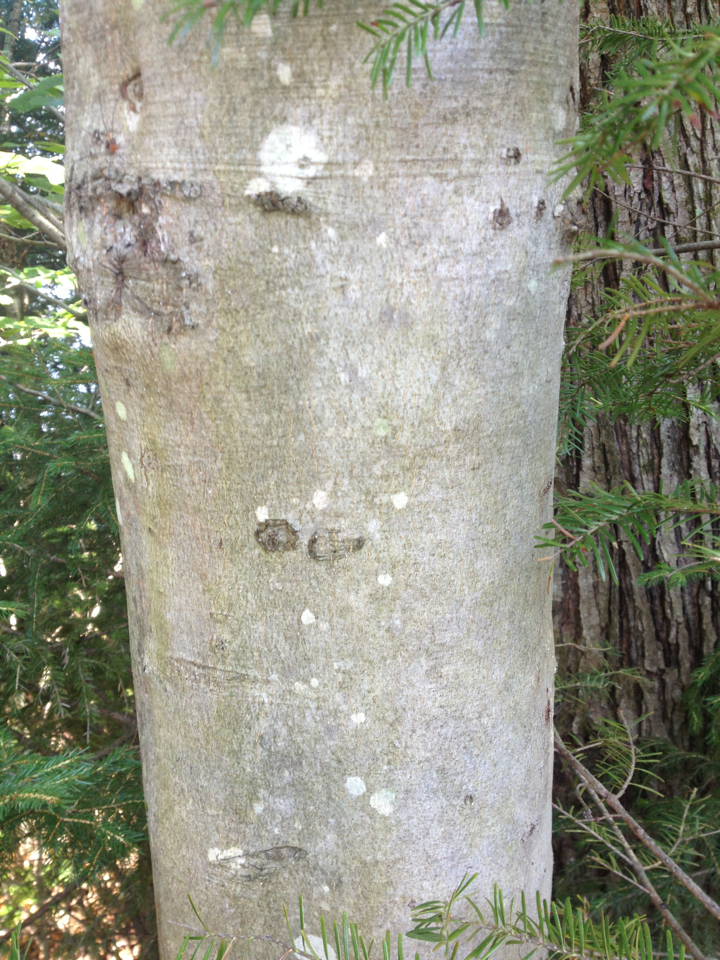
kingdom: Plantae
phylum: Tracheophyta
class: Magnoliopsida
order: Fagales
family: Fagaceae
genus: Fagus
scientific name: Fagus grandifolia
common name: American beech
